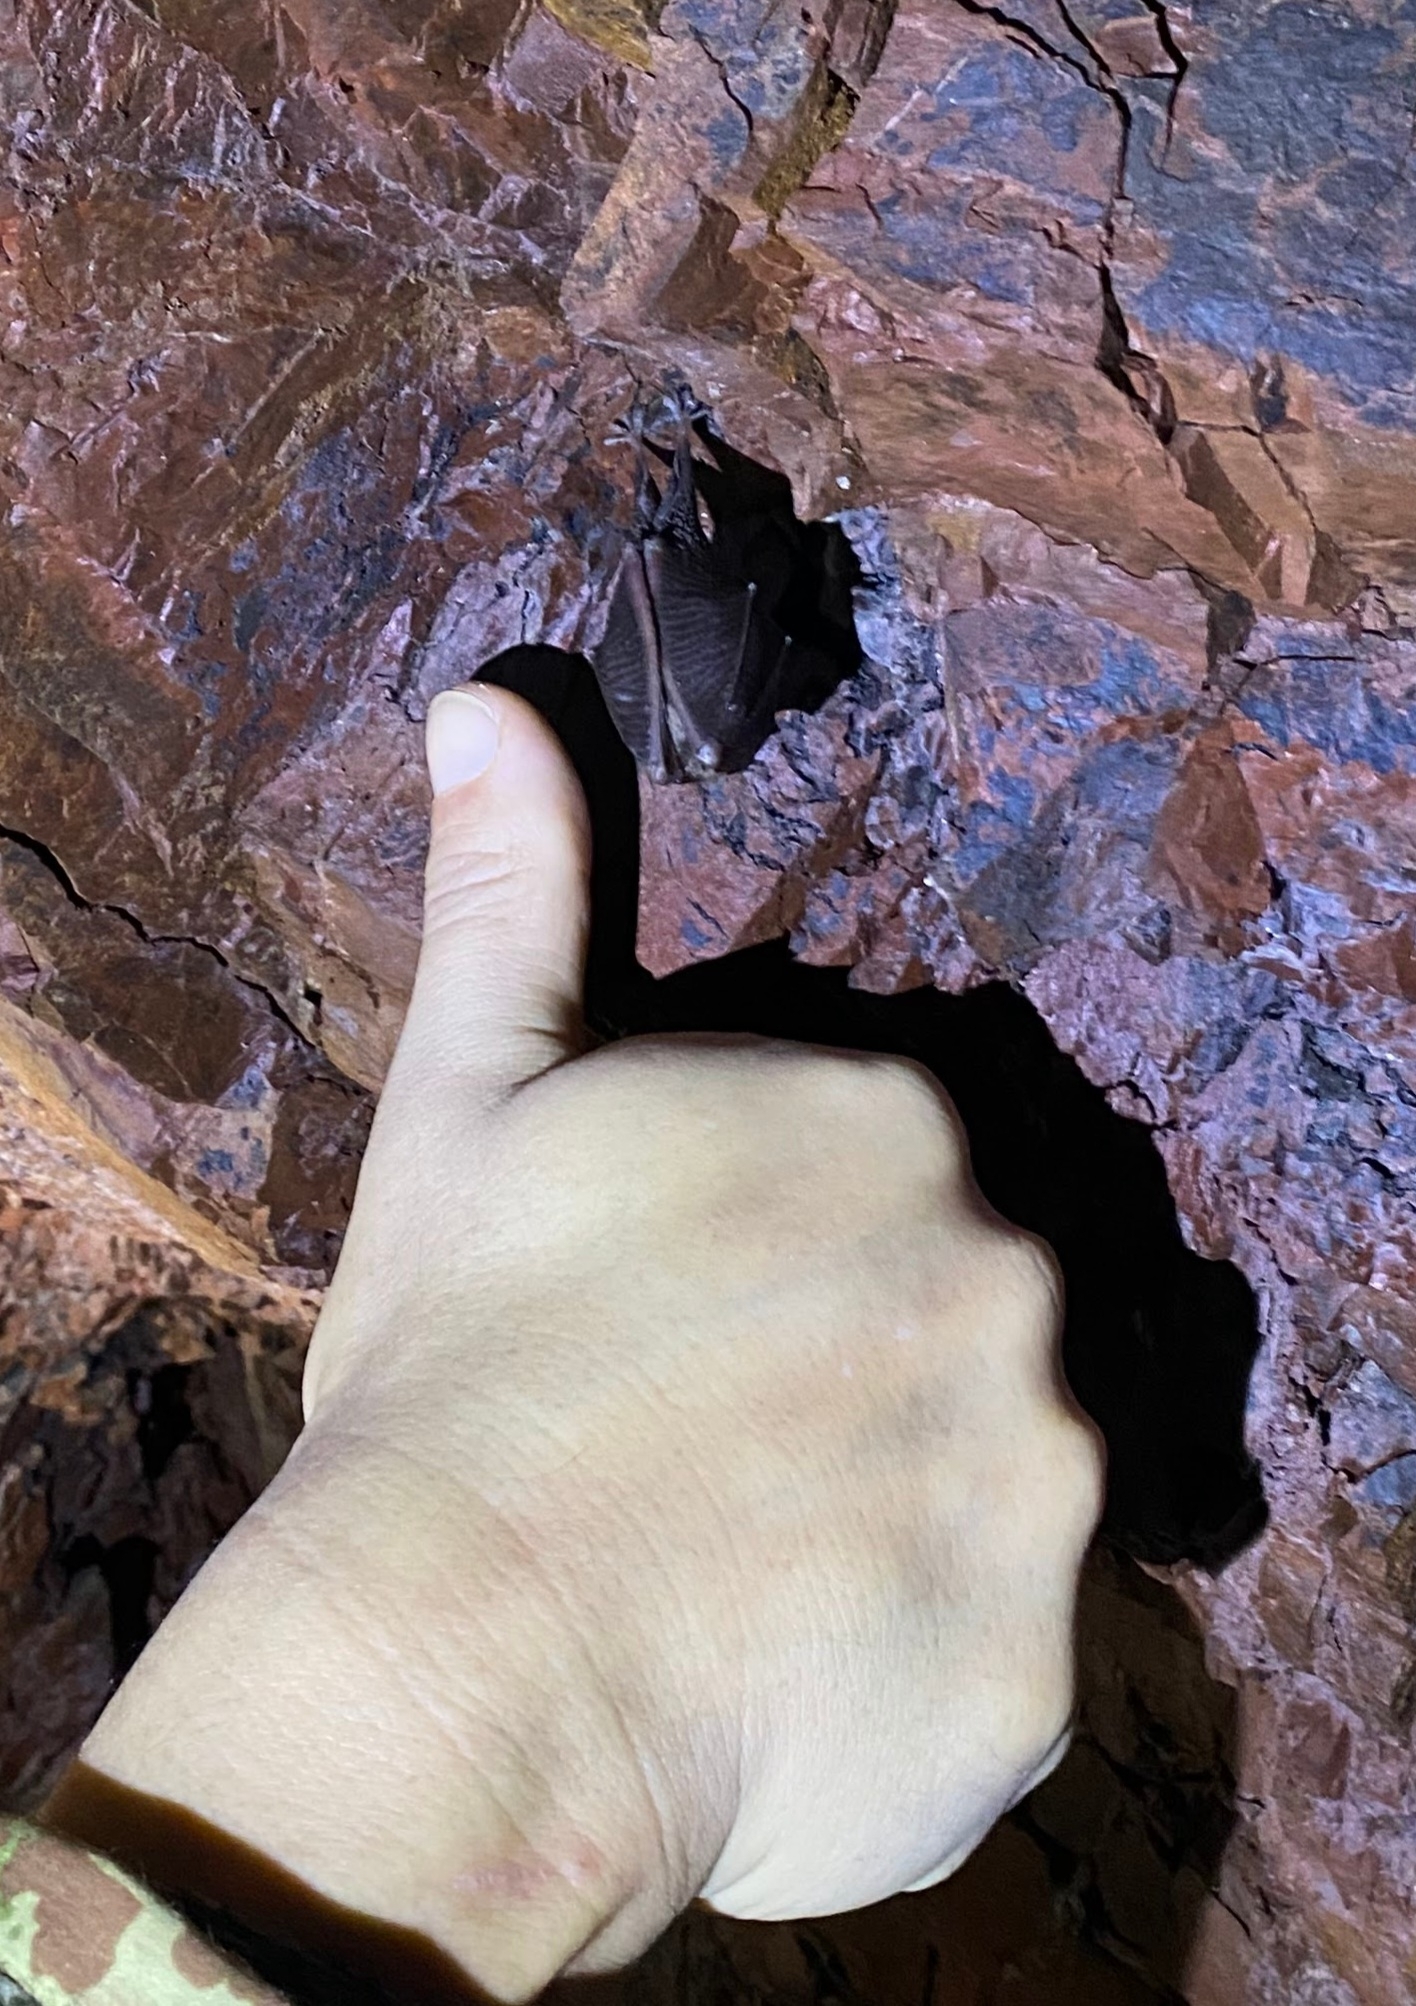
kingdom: Animalia
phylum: Chordata
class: Mammalia
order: Chiroptera
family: Rhinolophidae
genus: Rhinolophus
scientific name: Rhinolophus hipposideros
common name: Lesser horseshoe bat
